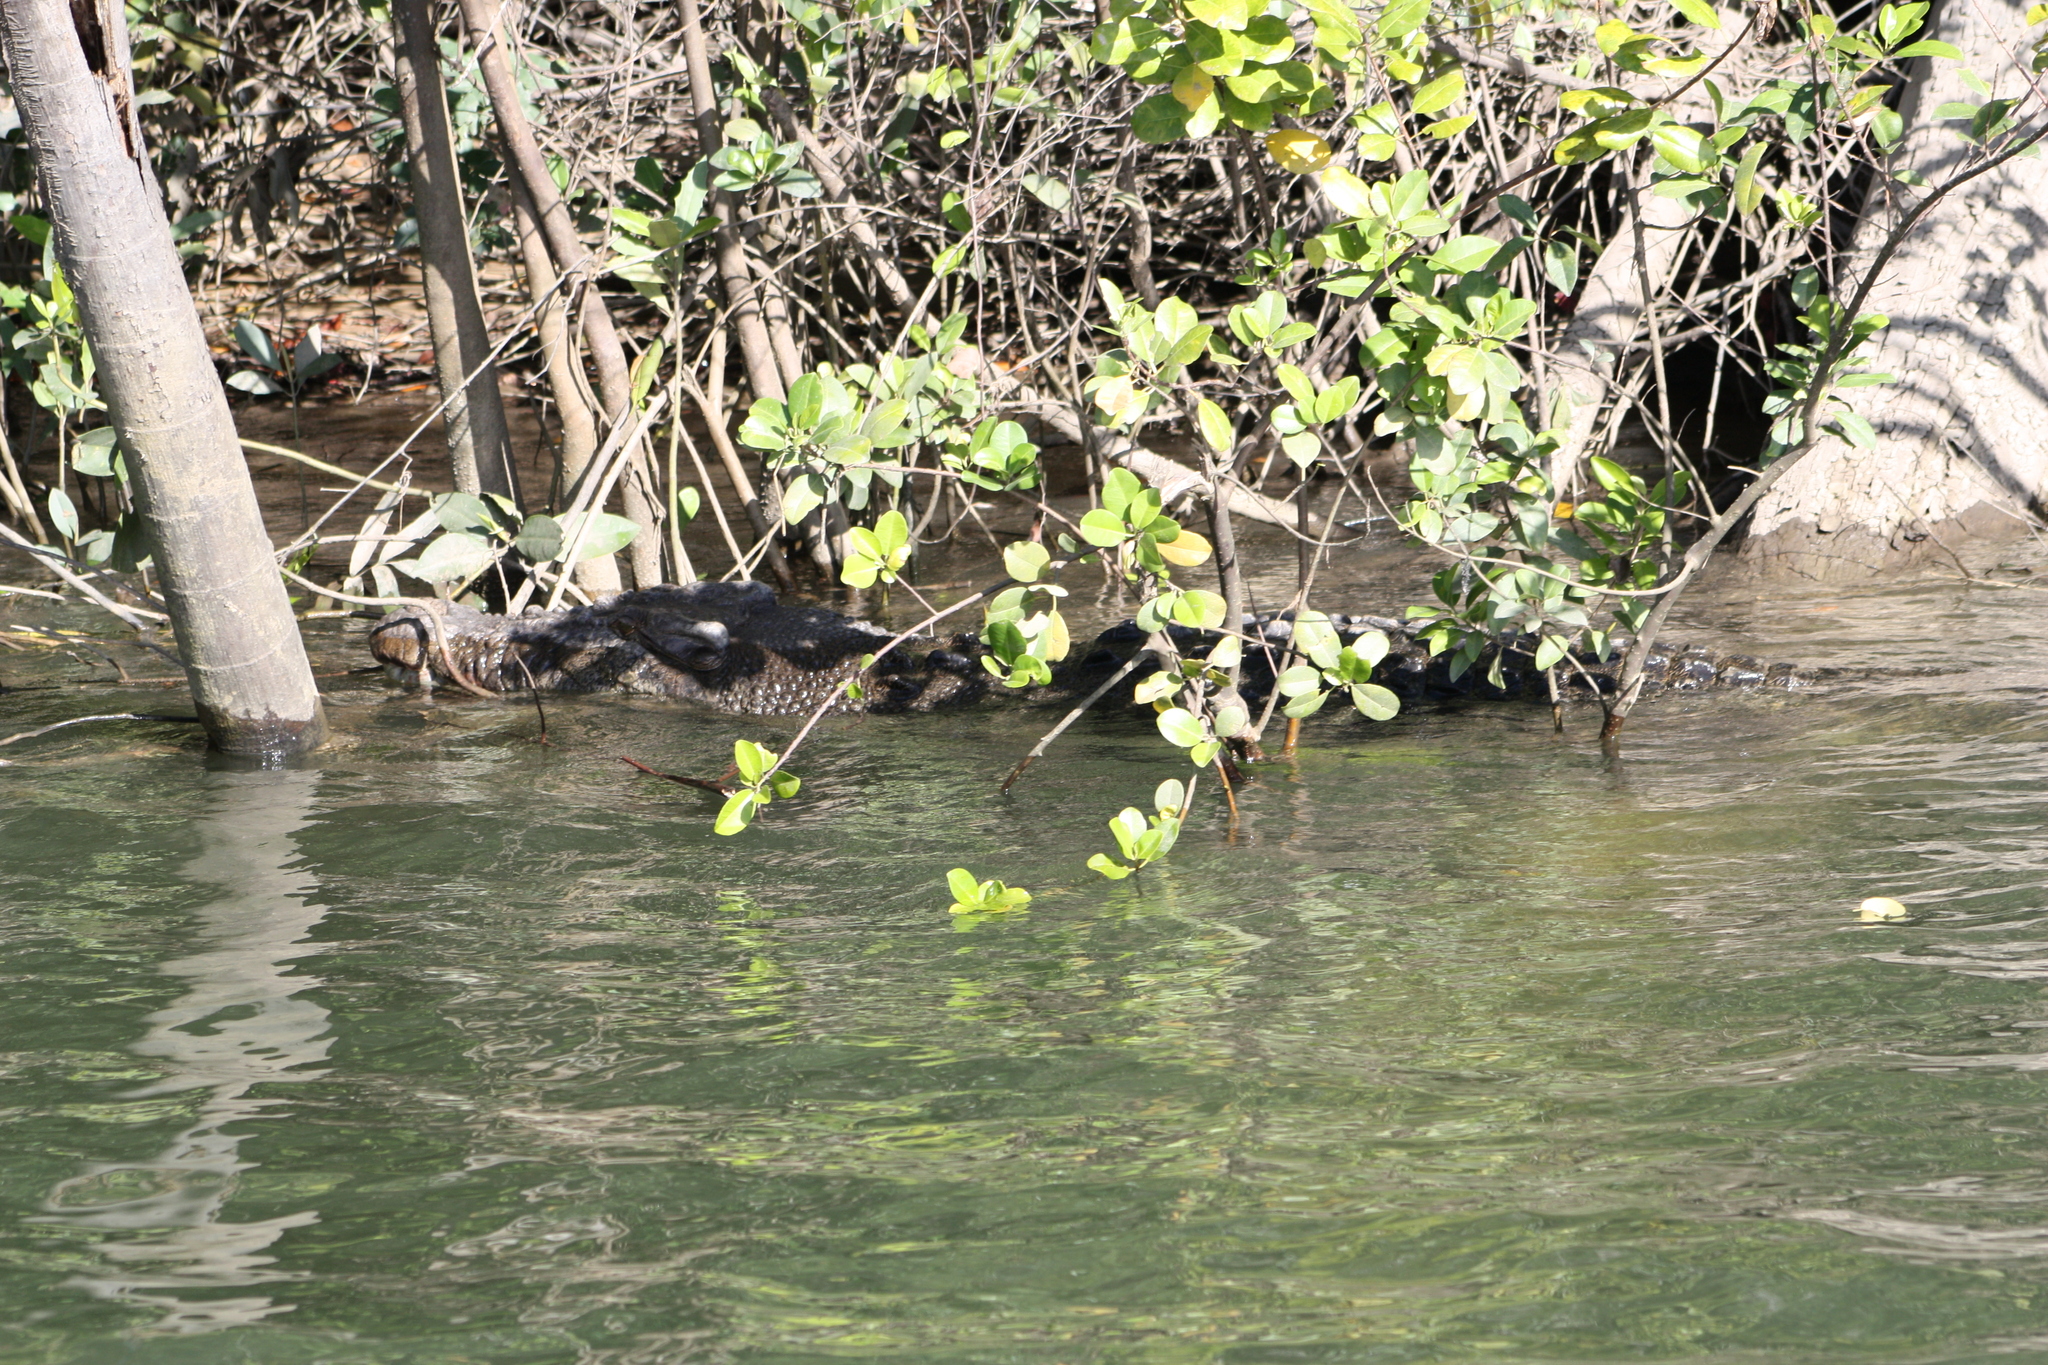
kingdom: Animalia
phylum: Chordata
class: Crocodylia
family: Crocodylidae
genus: Crocodylus
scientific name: Crocodylus porosus
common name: Saltwater crocodile
